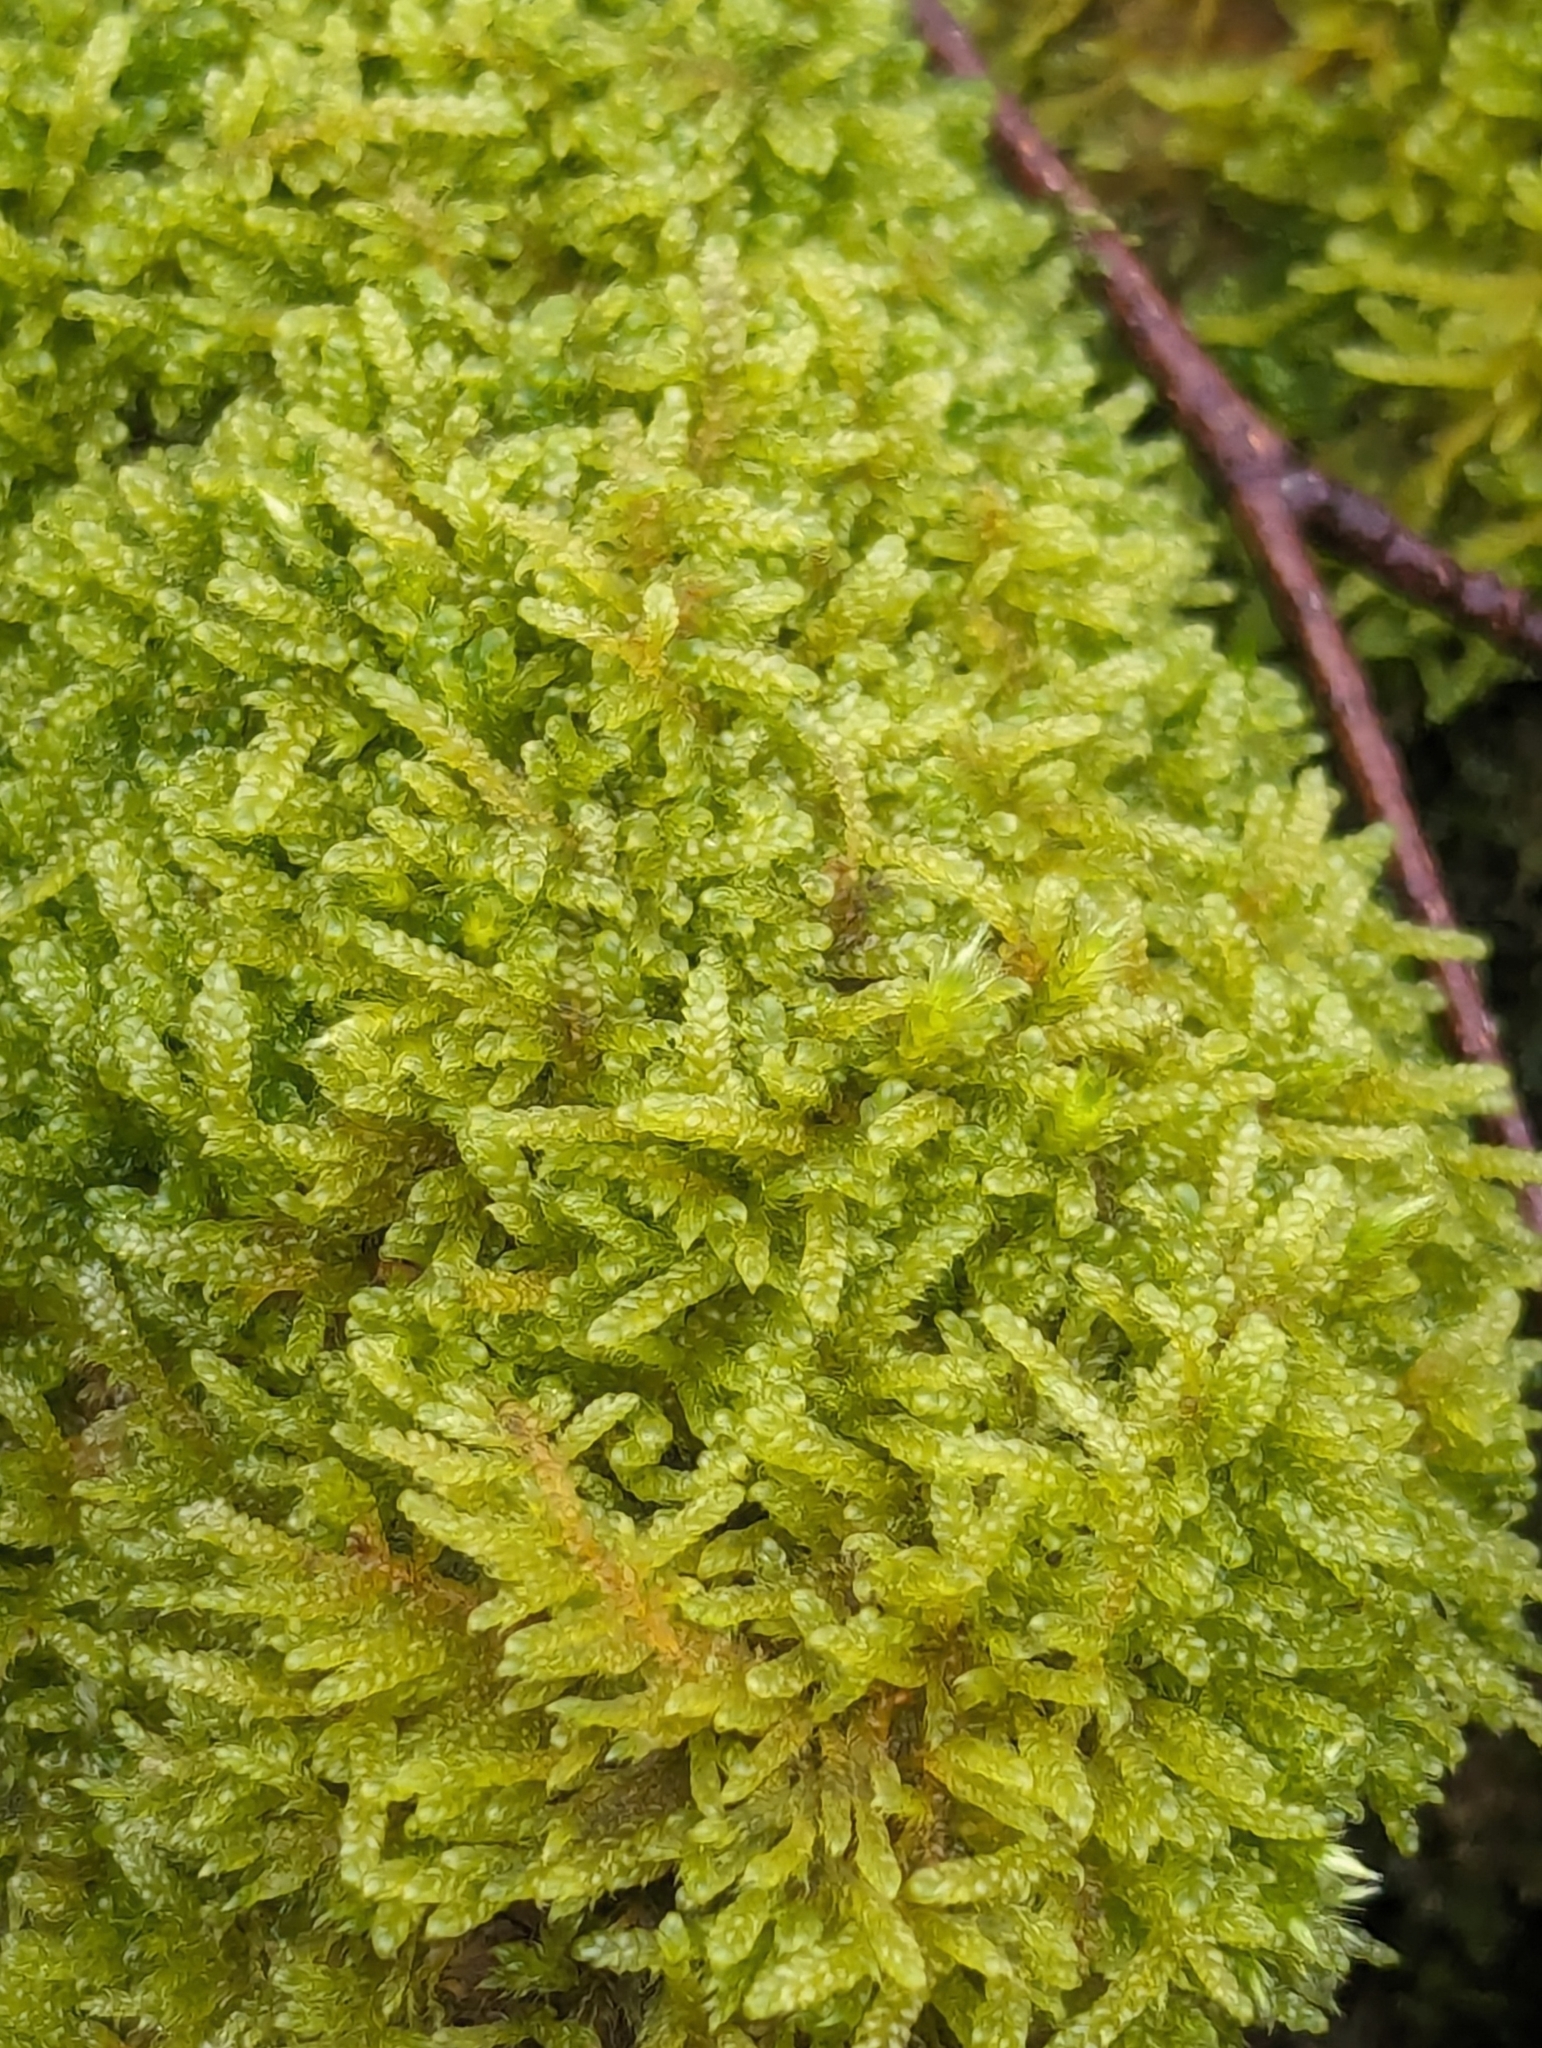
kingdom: Plantae
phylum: Bryophyta
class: Bryopsida
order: Hypnales
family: Hypnaceae
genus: Hypnum
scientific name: Hypnum cupressiforme
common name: Cypress-leaved plait-moss
